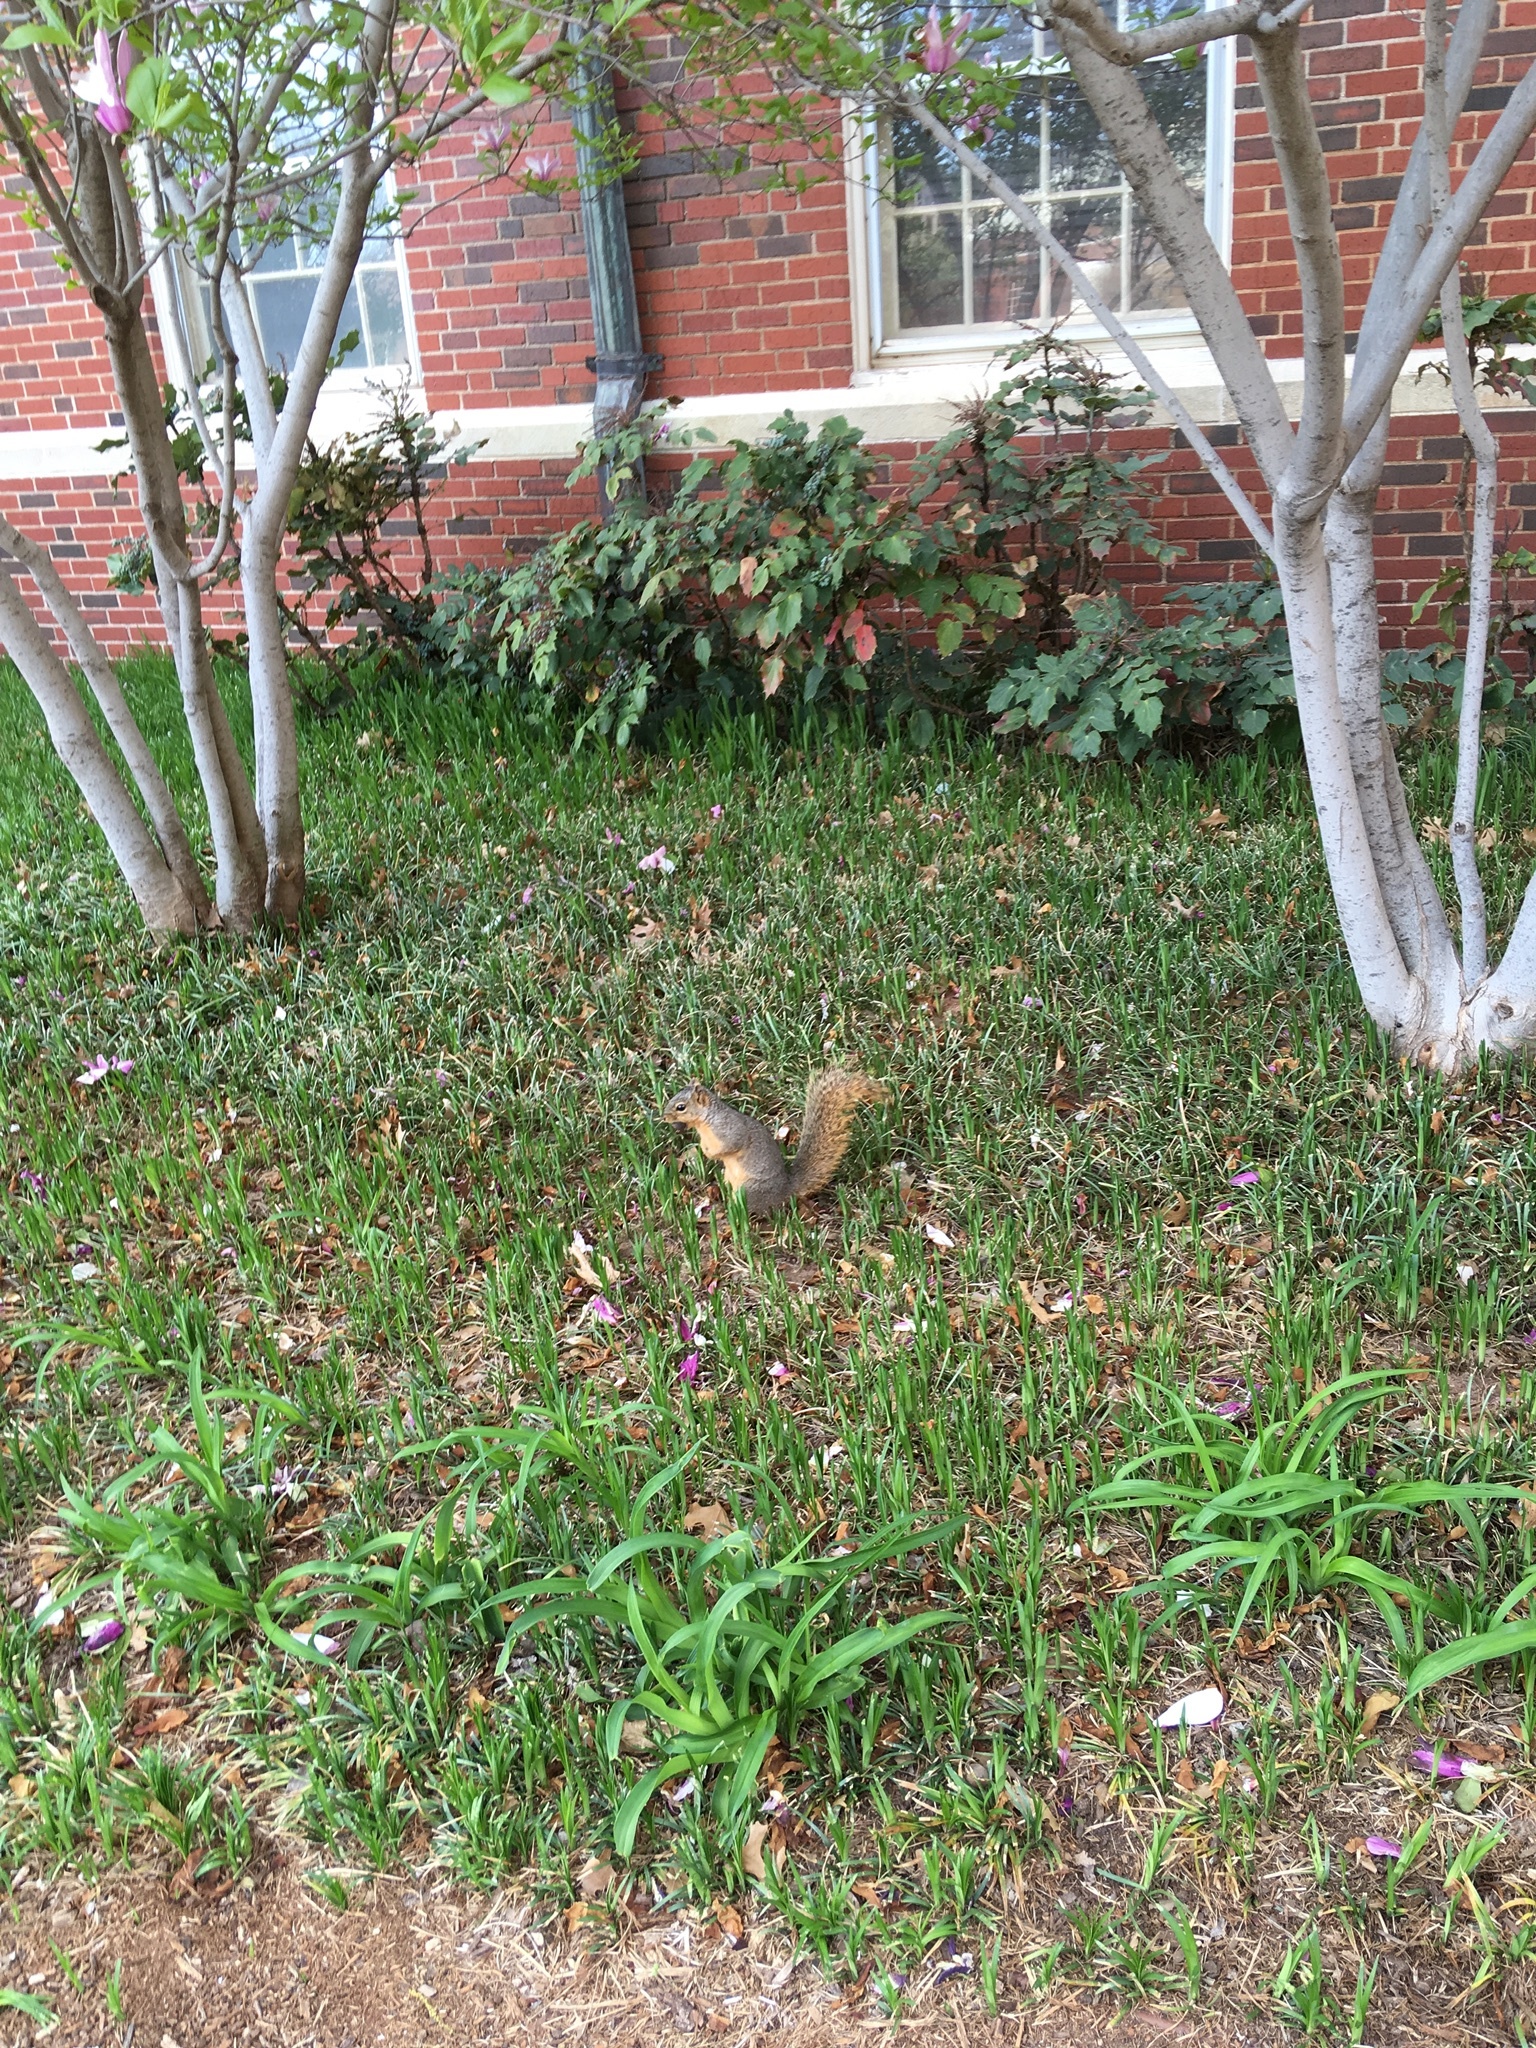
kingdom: Animalia
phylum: Chordata
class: Mammalia
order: Rodentia
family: Sciuridae
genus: Sciurus
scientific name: Sciurus niger
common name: Fox squirrel
